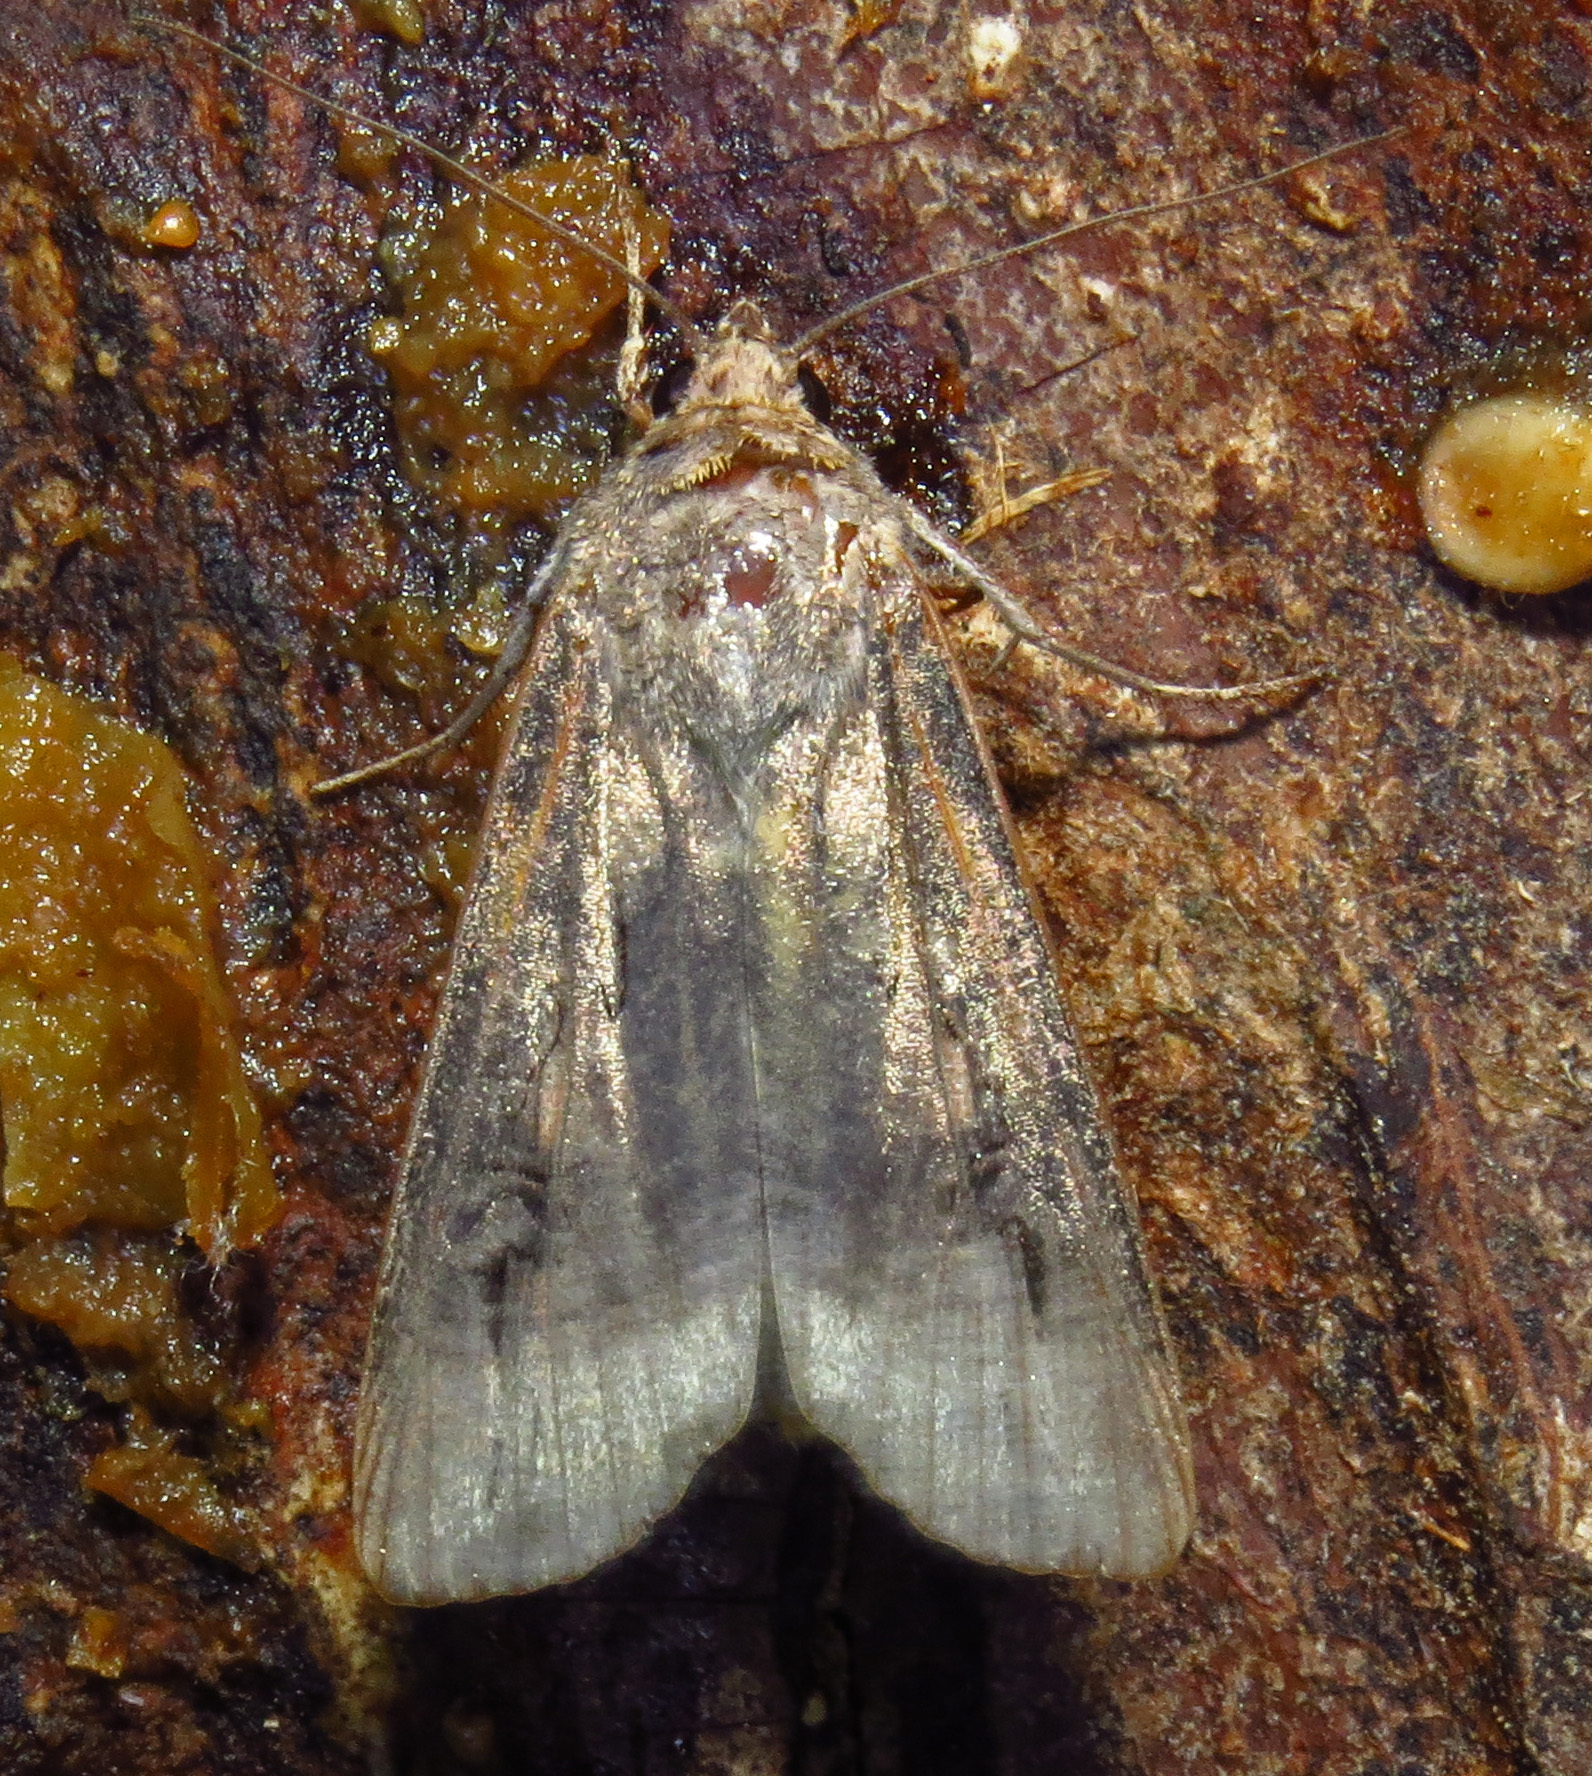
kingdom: Animalia
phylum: Arthropoda
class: Insecta
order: Lepidoptera
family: Noctuidae
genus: Agrotis
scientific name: Agrotis ipsilon
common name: Dark sword-grass
